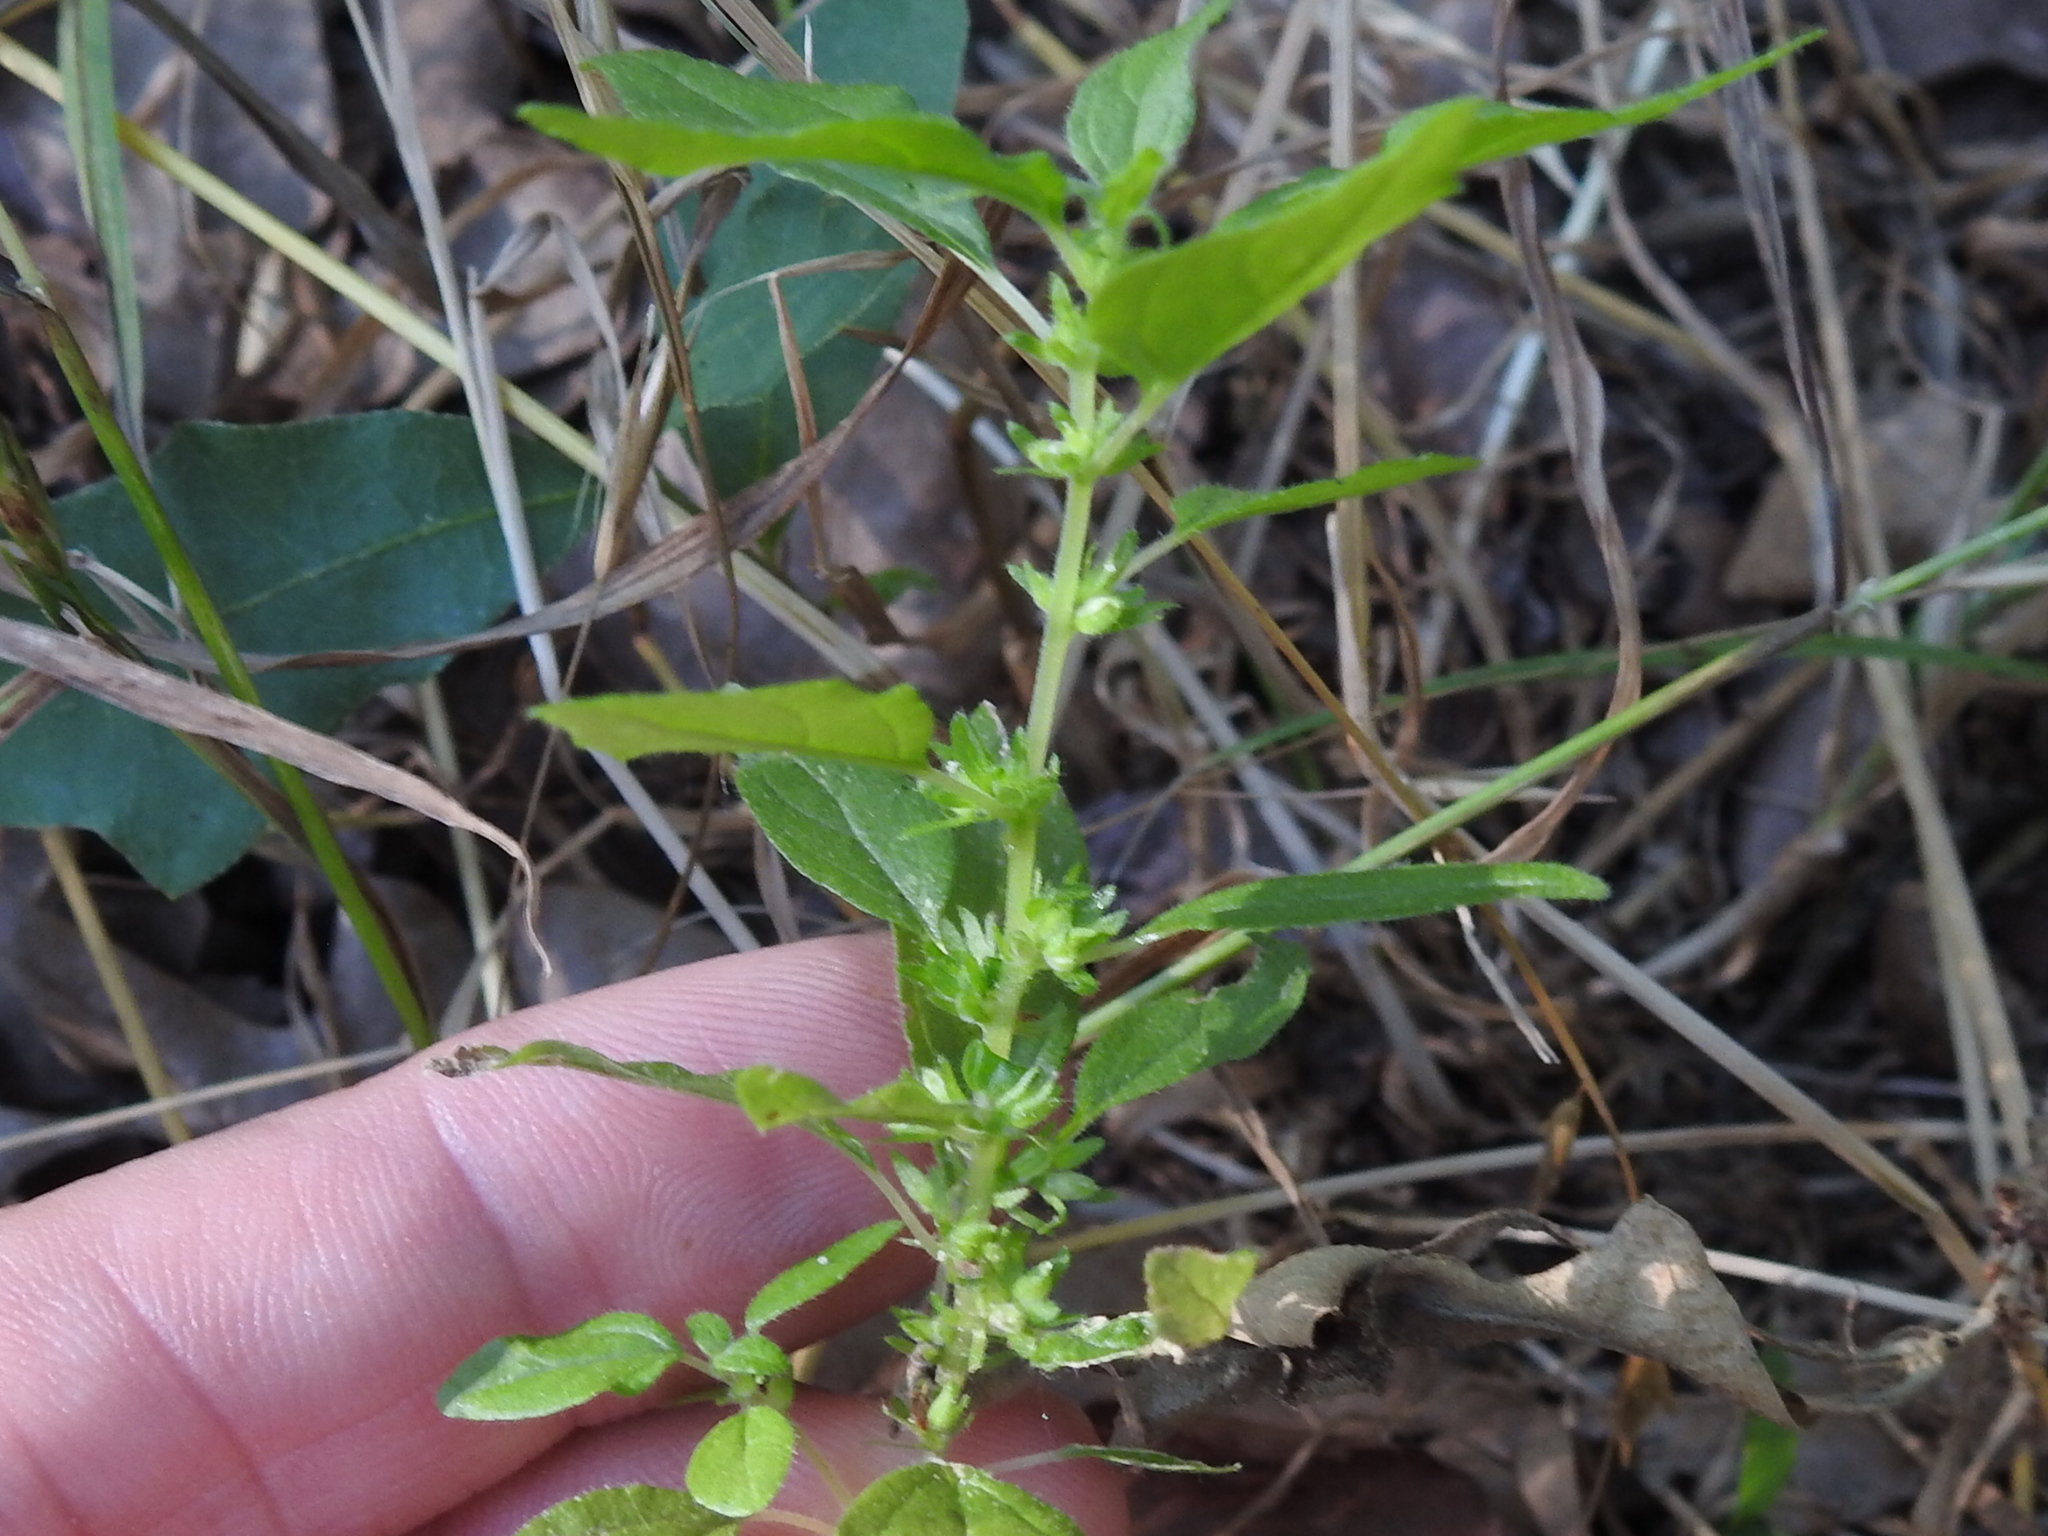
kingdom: Plantae
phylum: Tracheophyta
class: Magnoliopsida
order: Rosales
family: Urticaceae
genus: Parietaria
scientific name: Parietaria pensylvanica
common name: Pennsylvania pellitory
